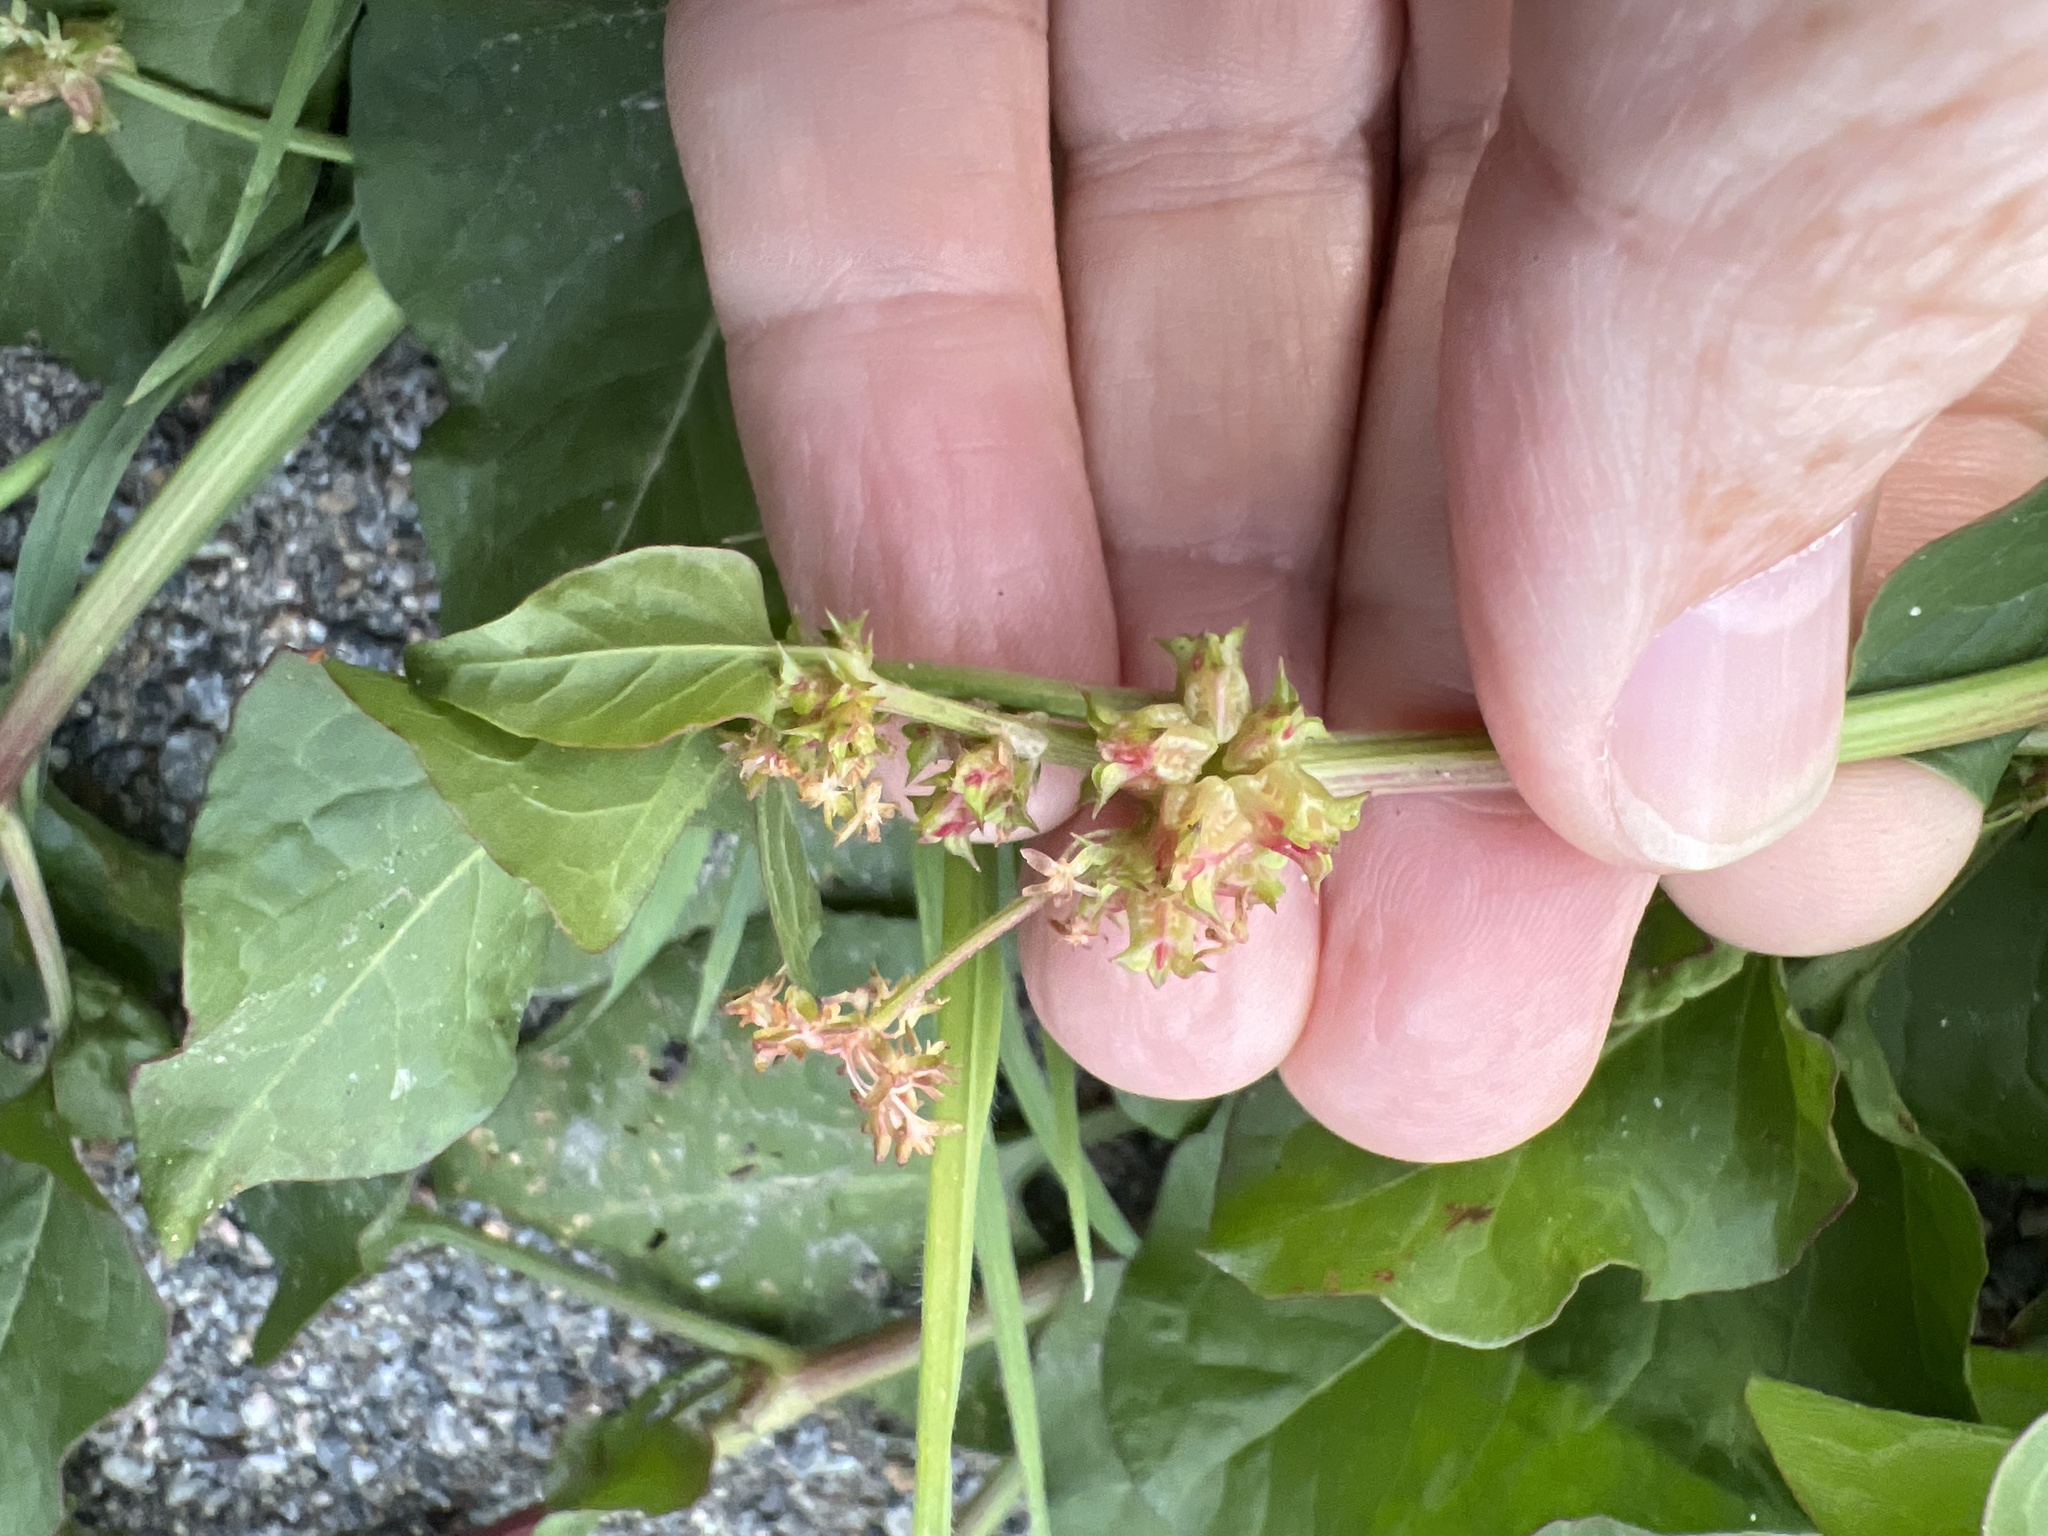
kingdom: Plantae
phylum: Tracheophyta
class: Magnoliopsida
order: Caryophyllales
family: Polygonaceae
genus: Rumex
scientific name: Rumex spinosus
